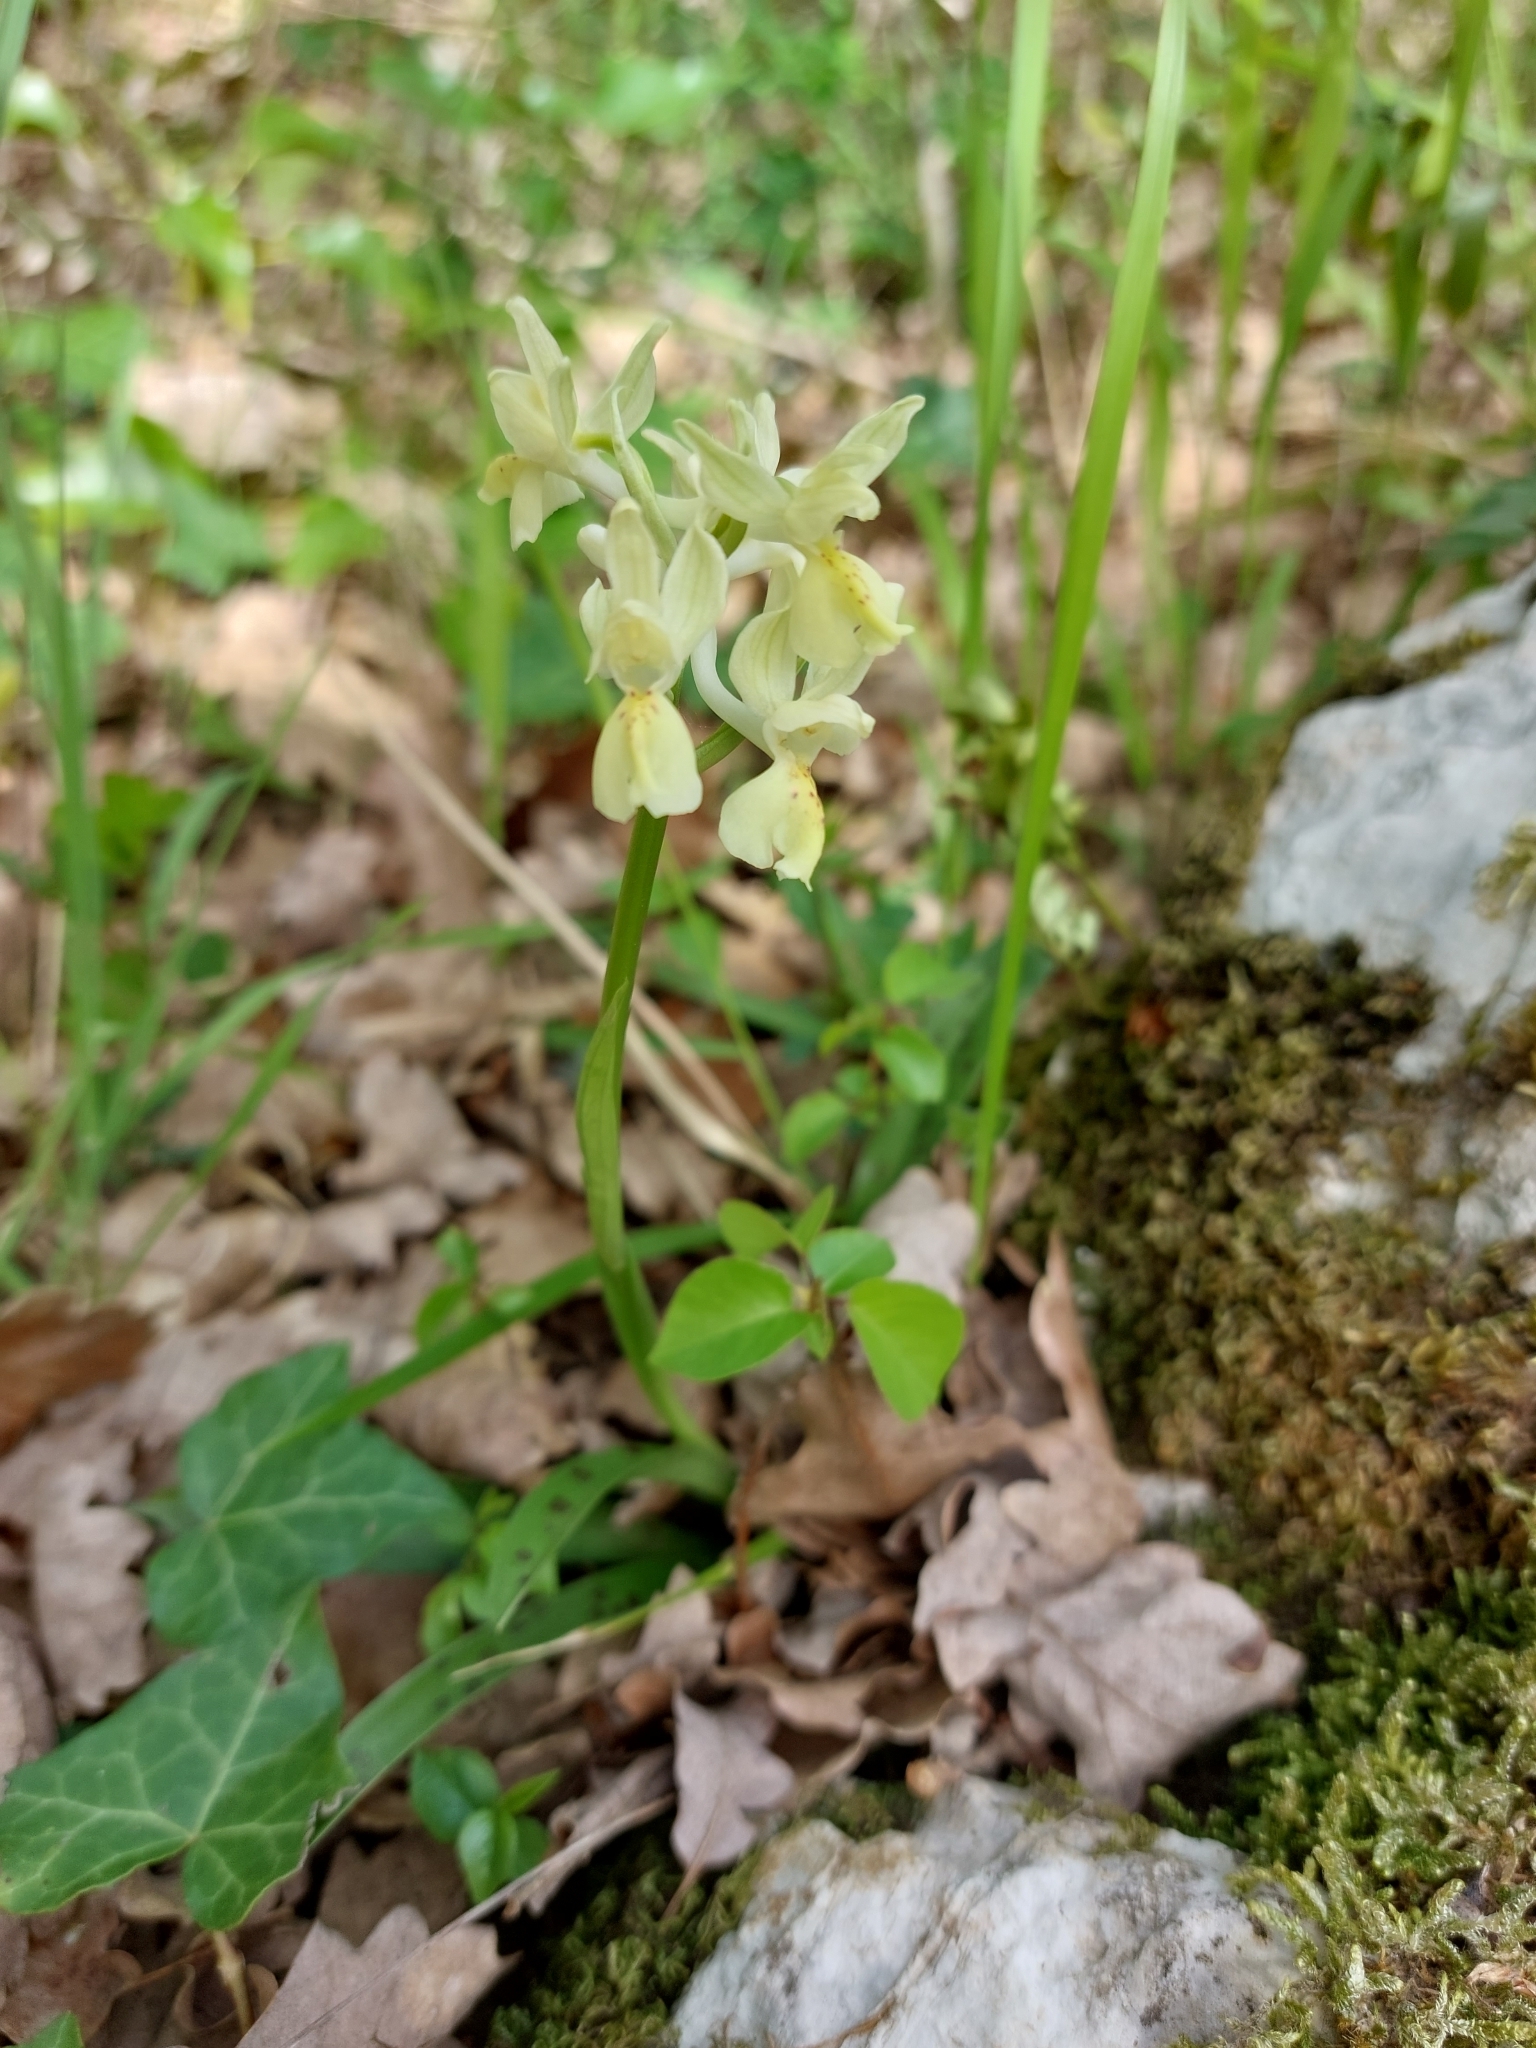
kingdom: Plantae
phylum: Tracheophyta
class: Liliopsida
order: Asparagales
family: Orchidaceae
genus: Orchis
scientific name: Orchis provincialis
